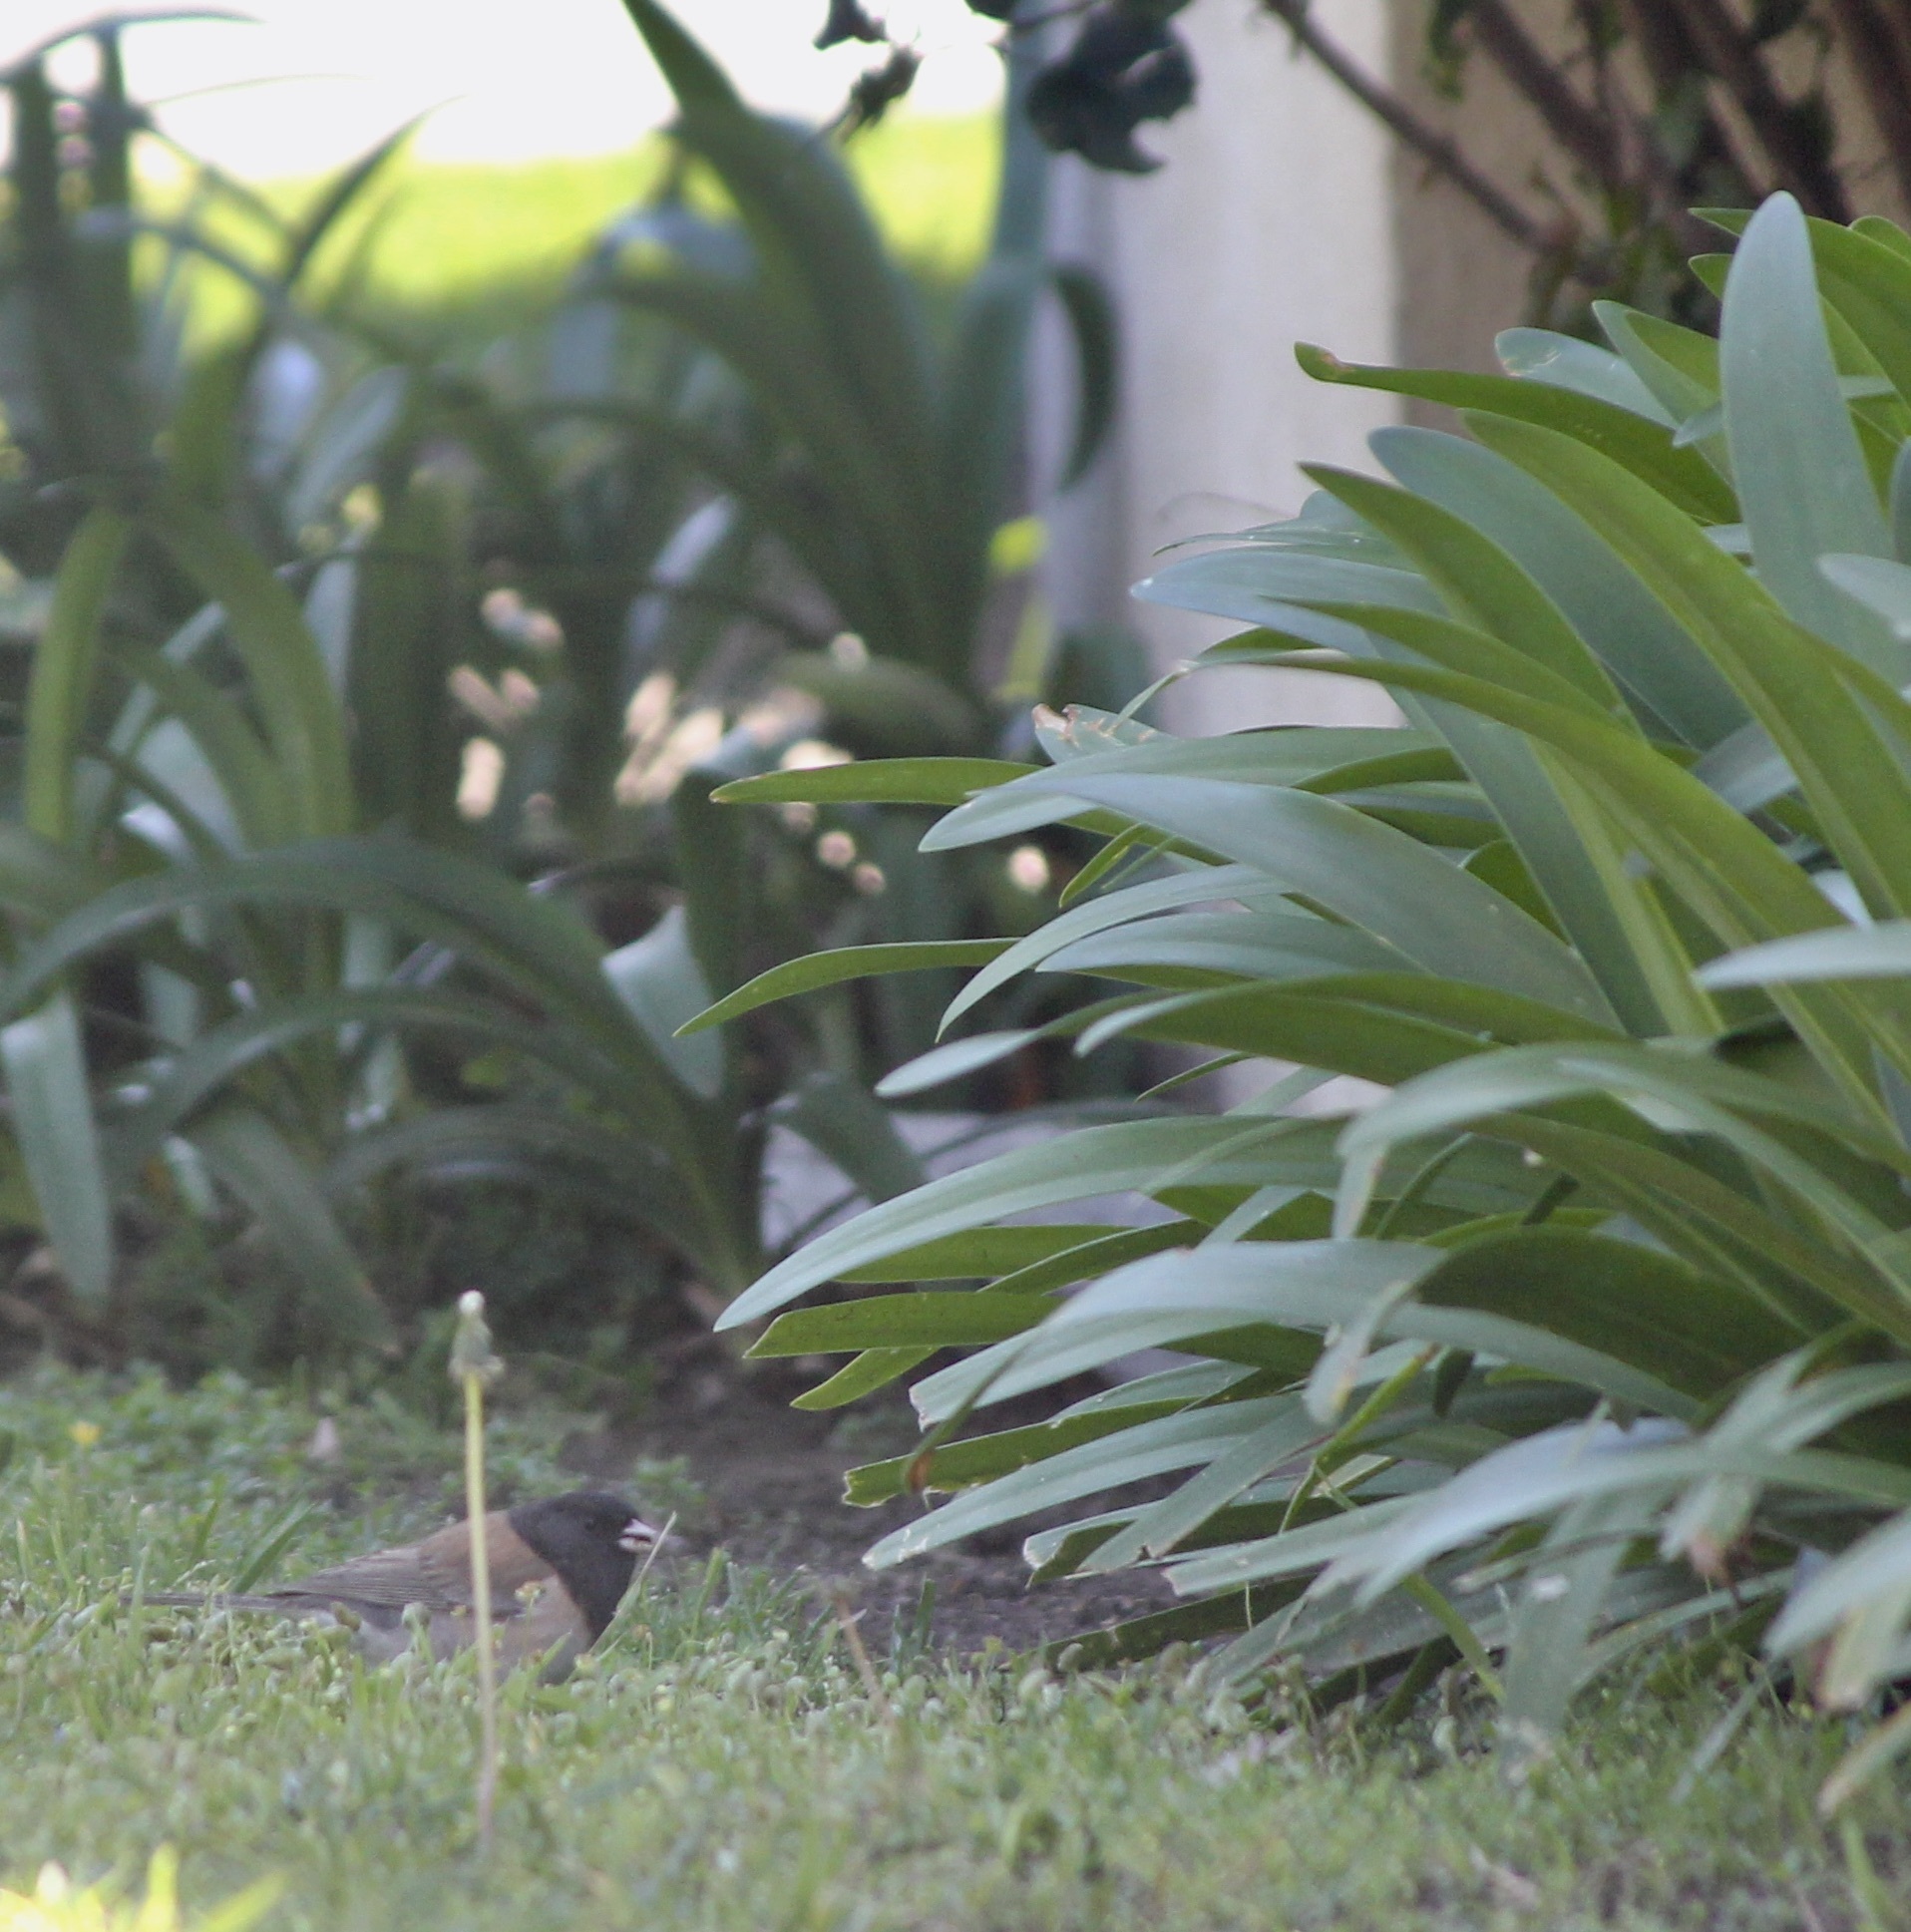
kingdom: Animalia
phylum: Chordata
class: Aves
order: Passeriformes
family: Passerellidae
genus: Junco
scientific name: Junco hyemalis
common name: Dark-eyed junco
